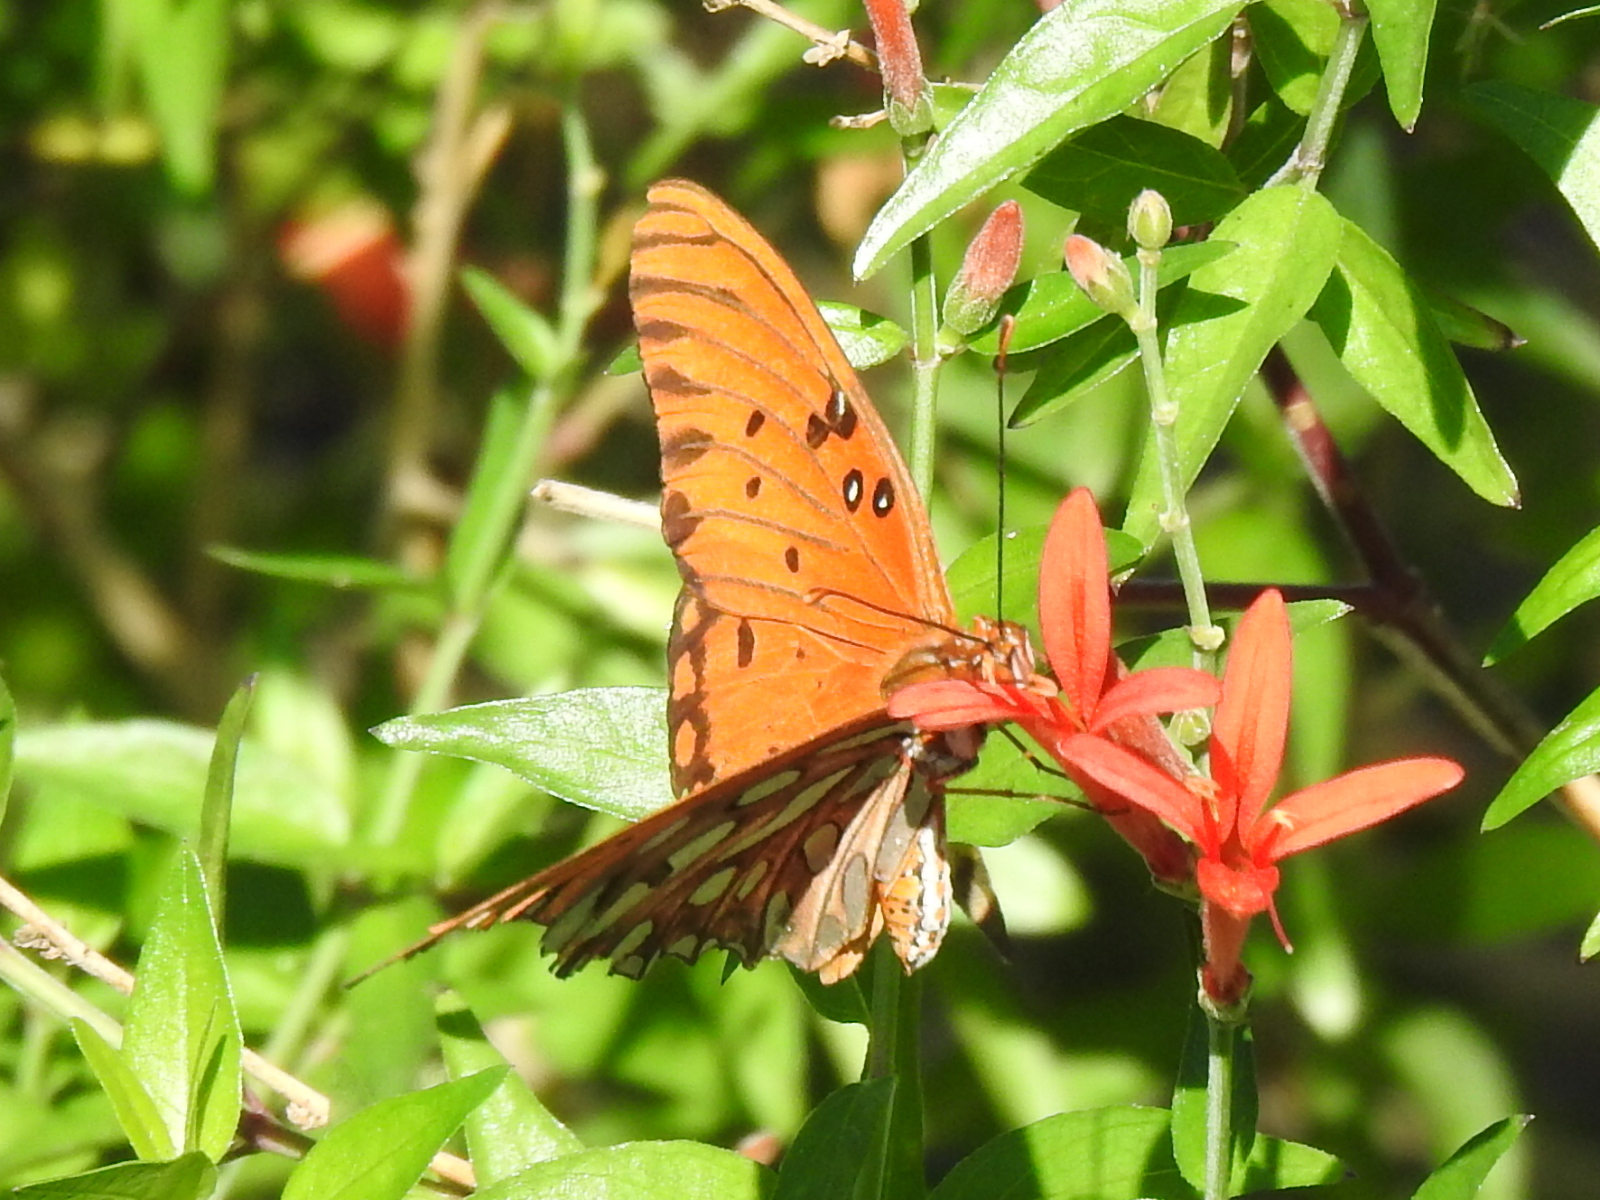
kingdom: Animalia
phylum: Arthropoda
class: Insecta
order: Lepidoptera
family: Nymphalidae
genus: Dione
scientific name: Dione vanillae
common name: Gulf fritillary
